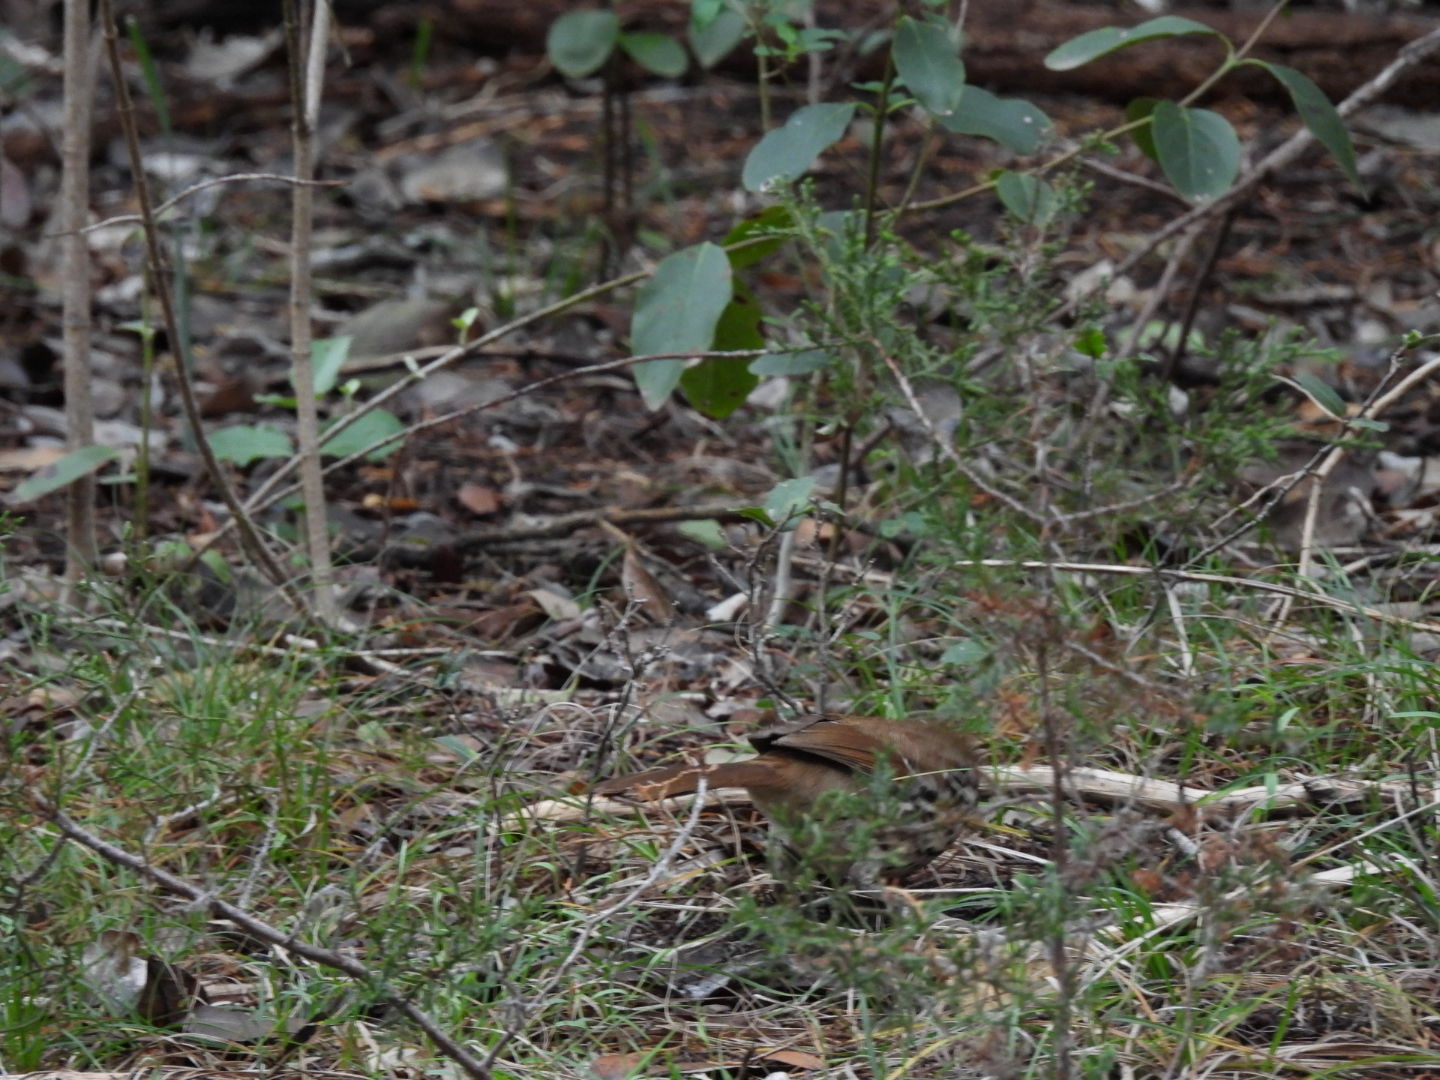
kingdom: Animalia
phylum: Chordata
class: Aves
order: Passeriformes
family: Mimidae
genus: Toxostoma
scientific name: Toxostoma longirostre
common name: Long-billed thrasher
